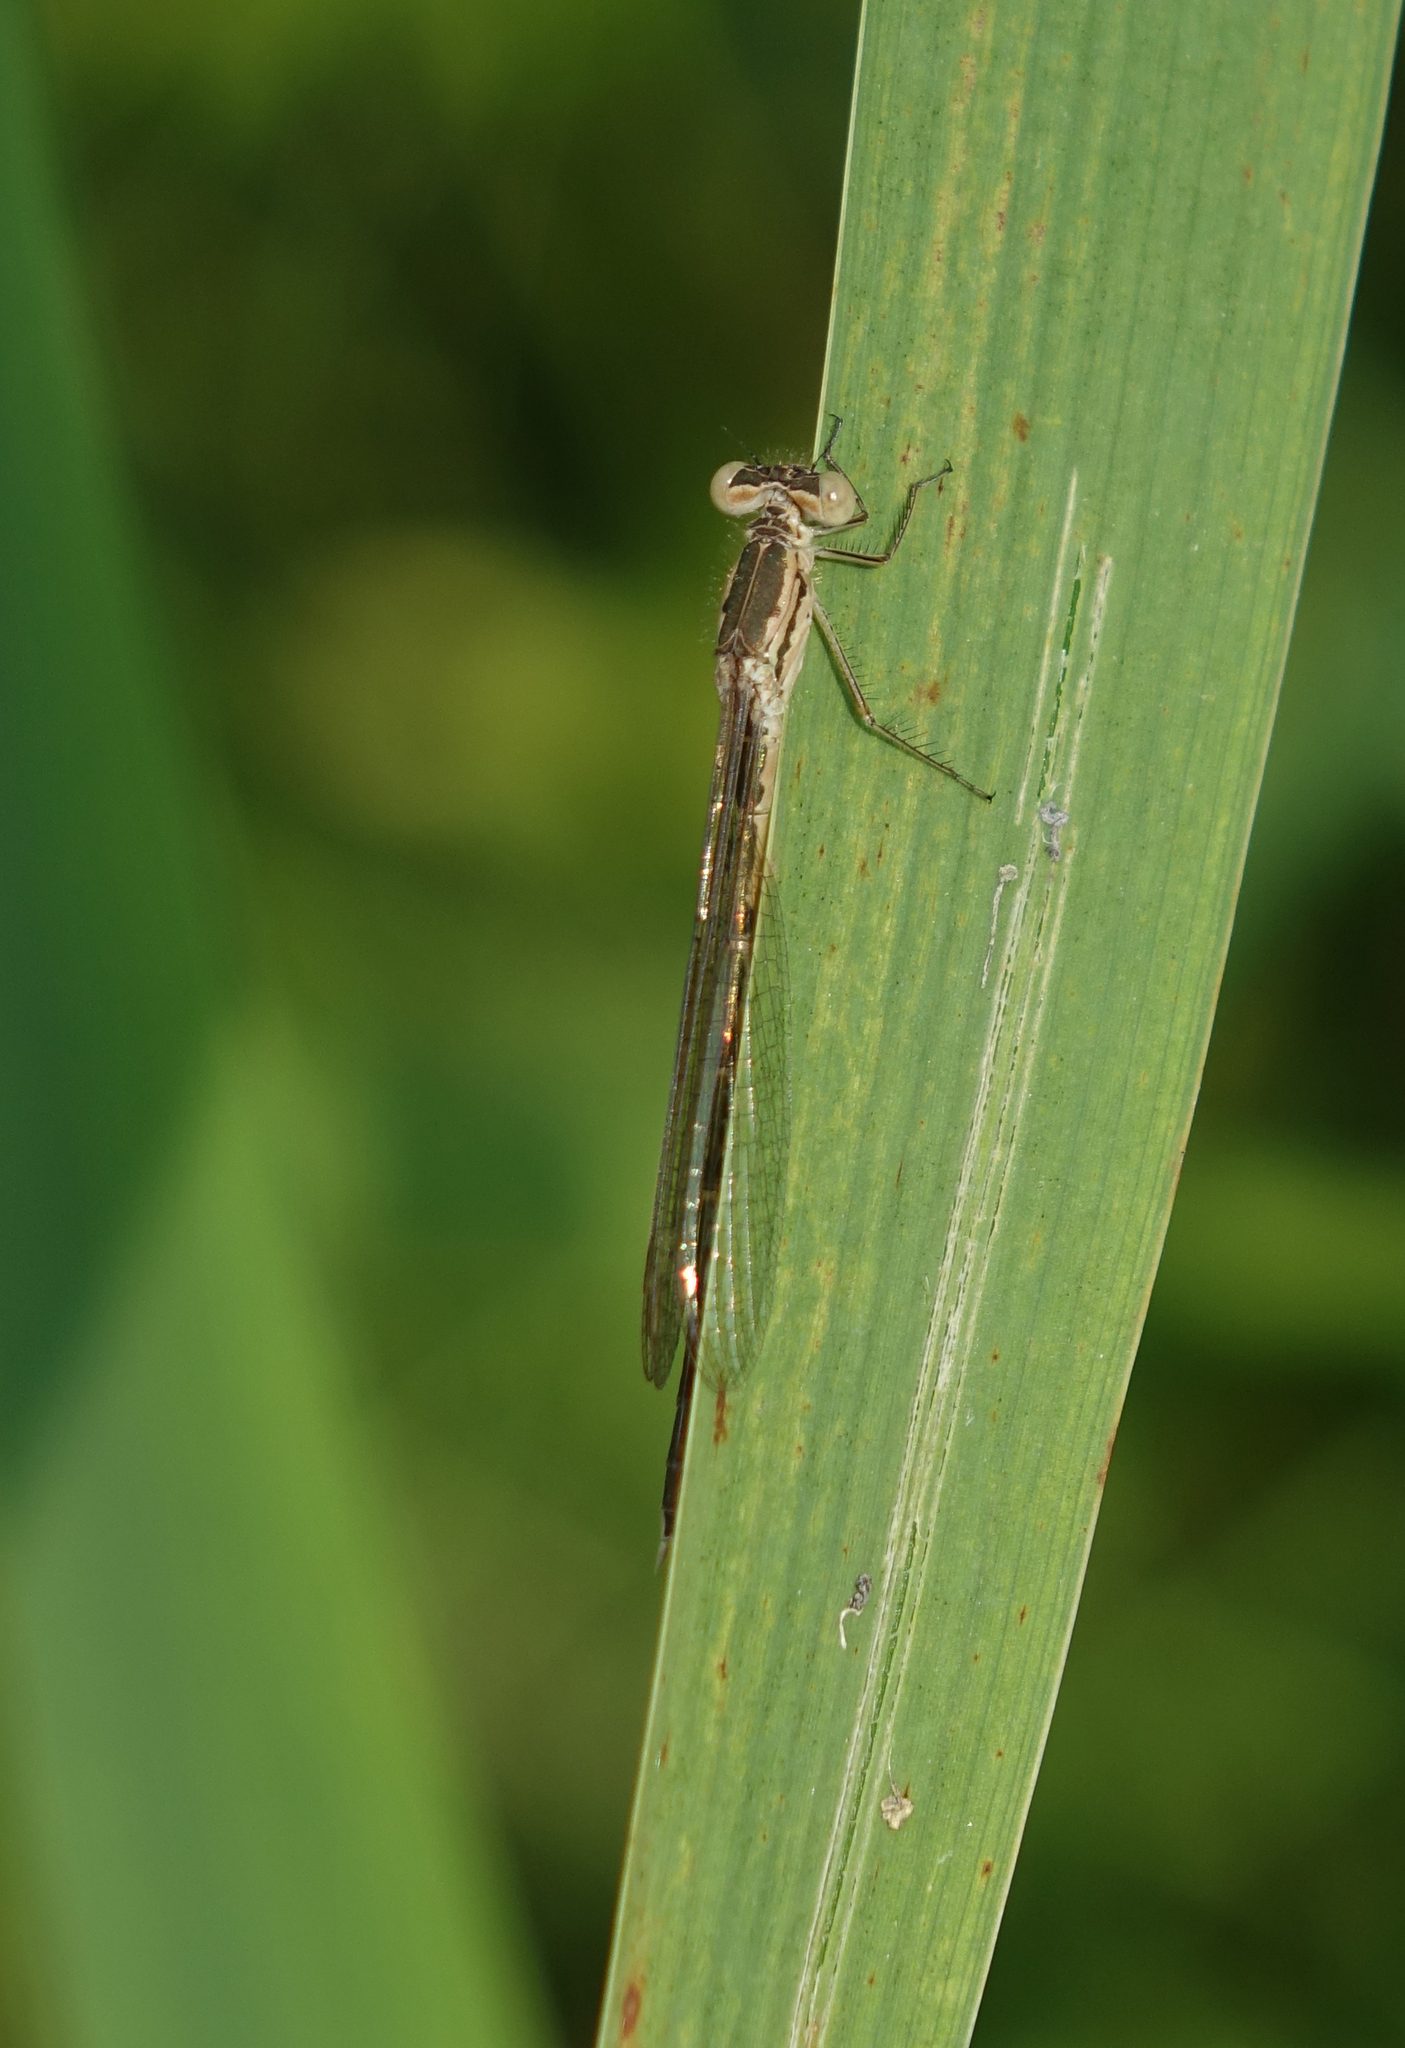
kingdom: Animalia
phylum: Arthropoda
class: Insecta
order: Odonata
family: Lestidae
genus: Sympecma
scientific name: Sympecma paedisca
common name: Siberian winter damsel
